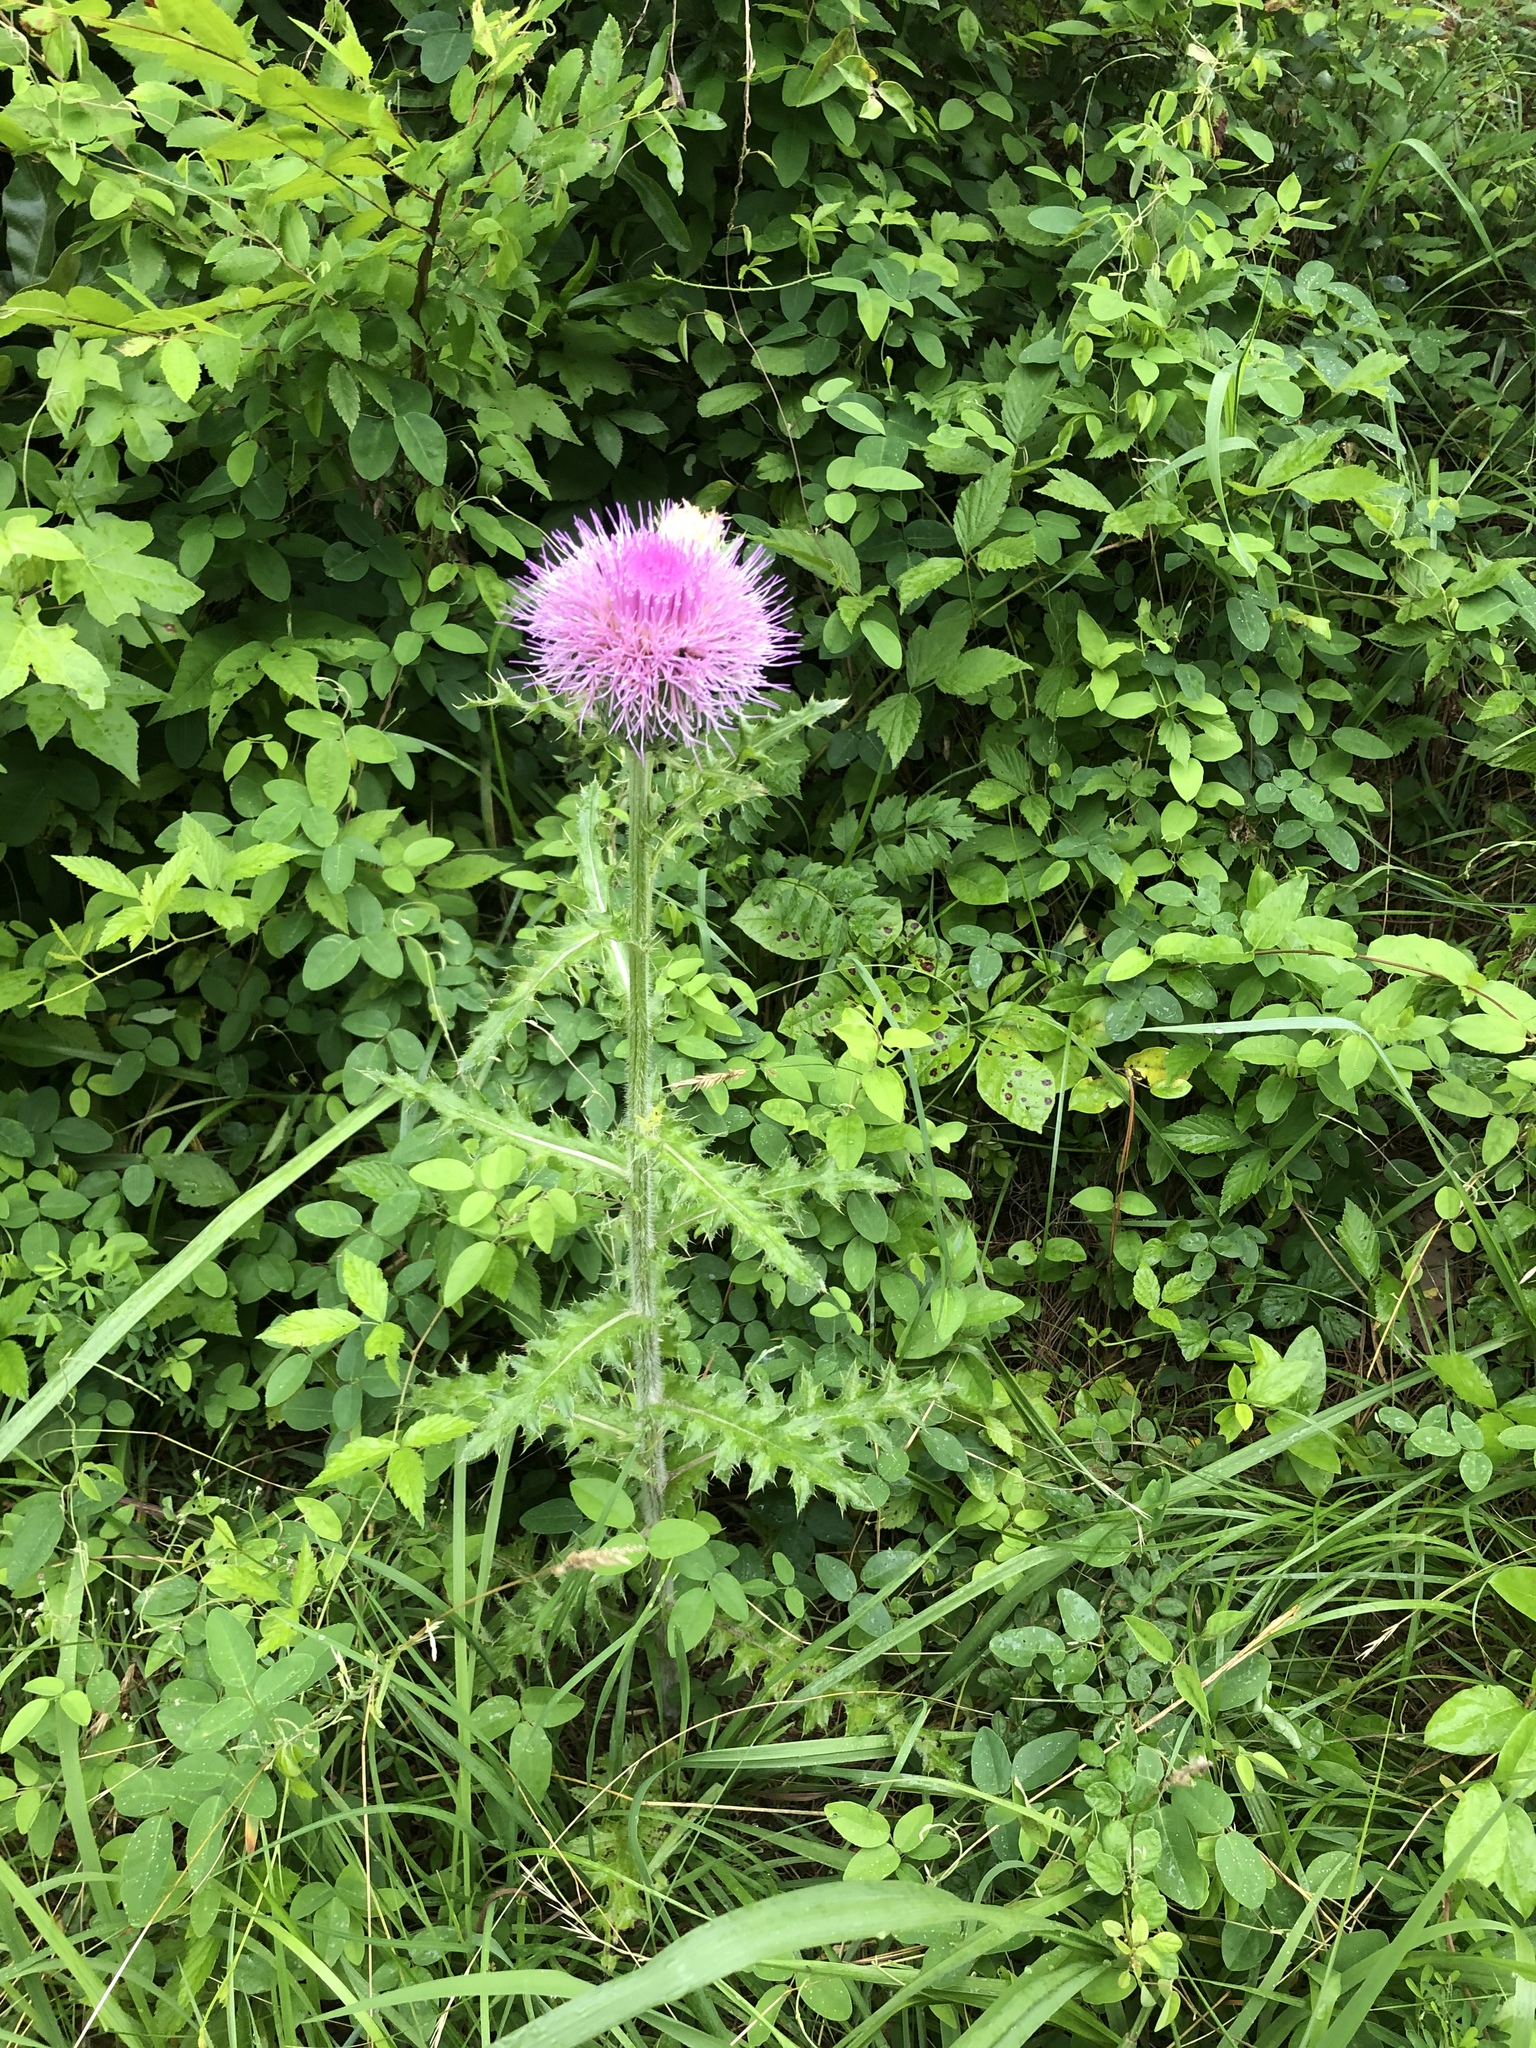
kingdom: Plantae
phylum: Tracheophyta
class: Magnoliopsida
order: Asterales
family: Asteraceae
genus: Cirsium
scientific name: Cirsium pumilum
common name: Pasture thistle
